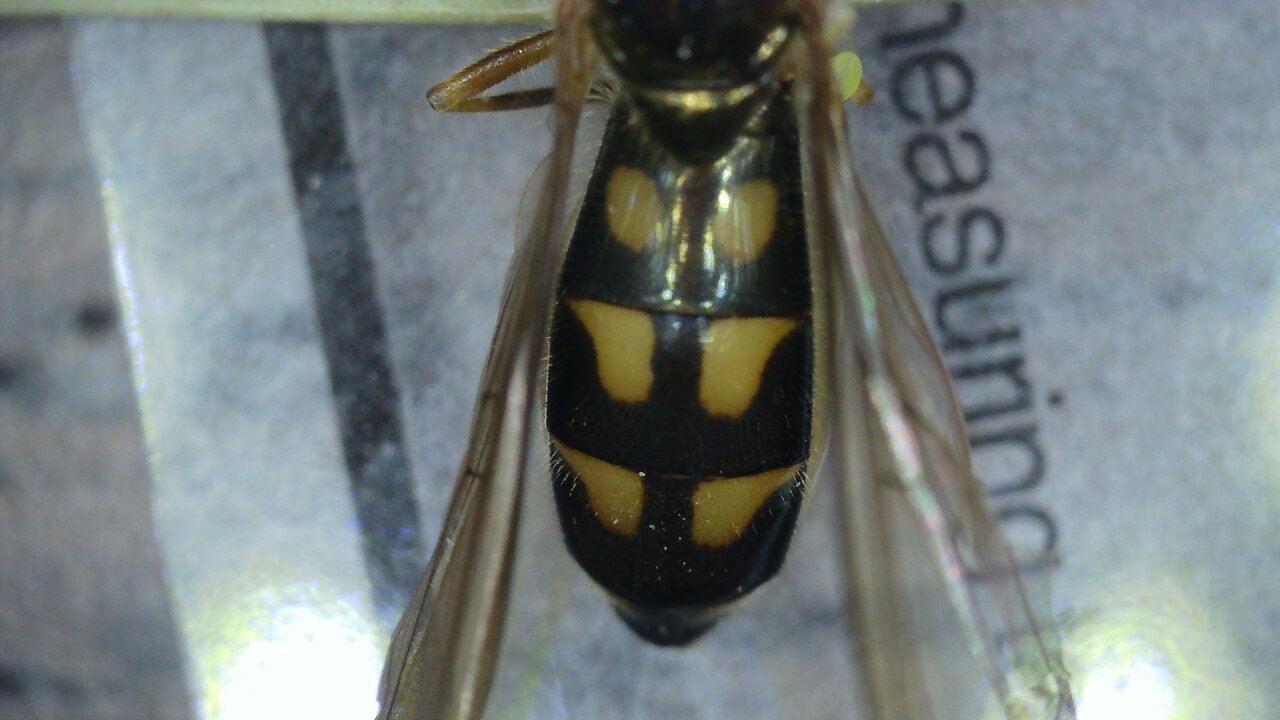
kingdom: Animalia
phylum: Arthropoda
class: Insecta
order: Diptera
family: Syrphidae
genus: Melanostoma
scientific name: Melanostoma scalare
